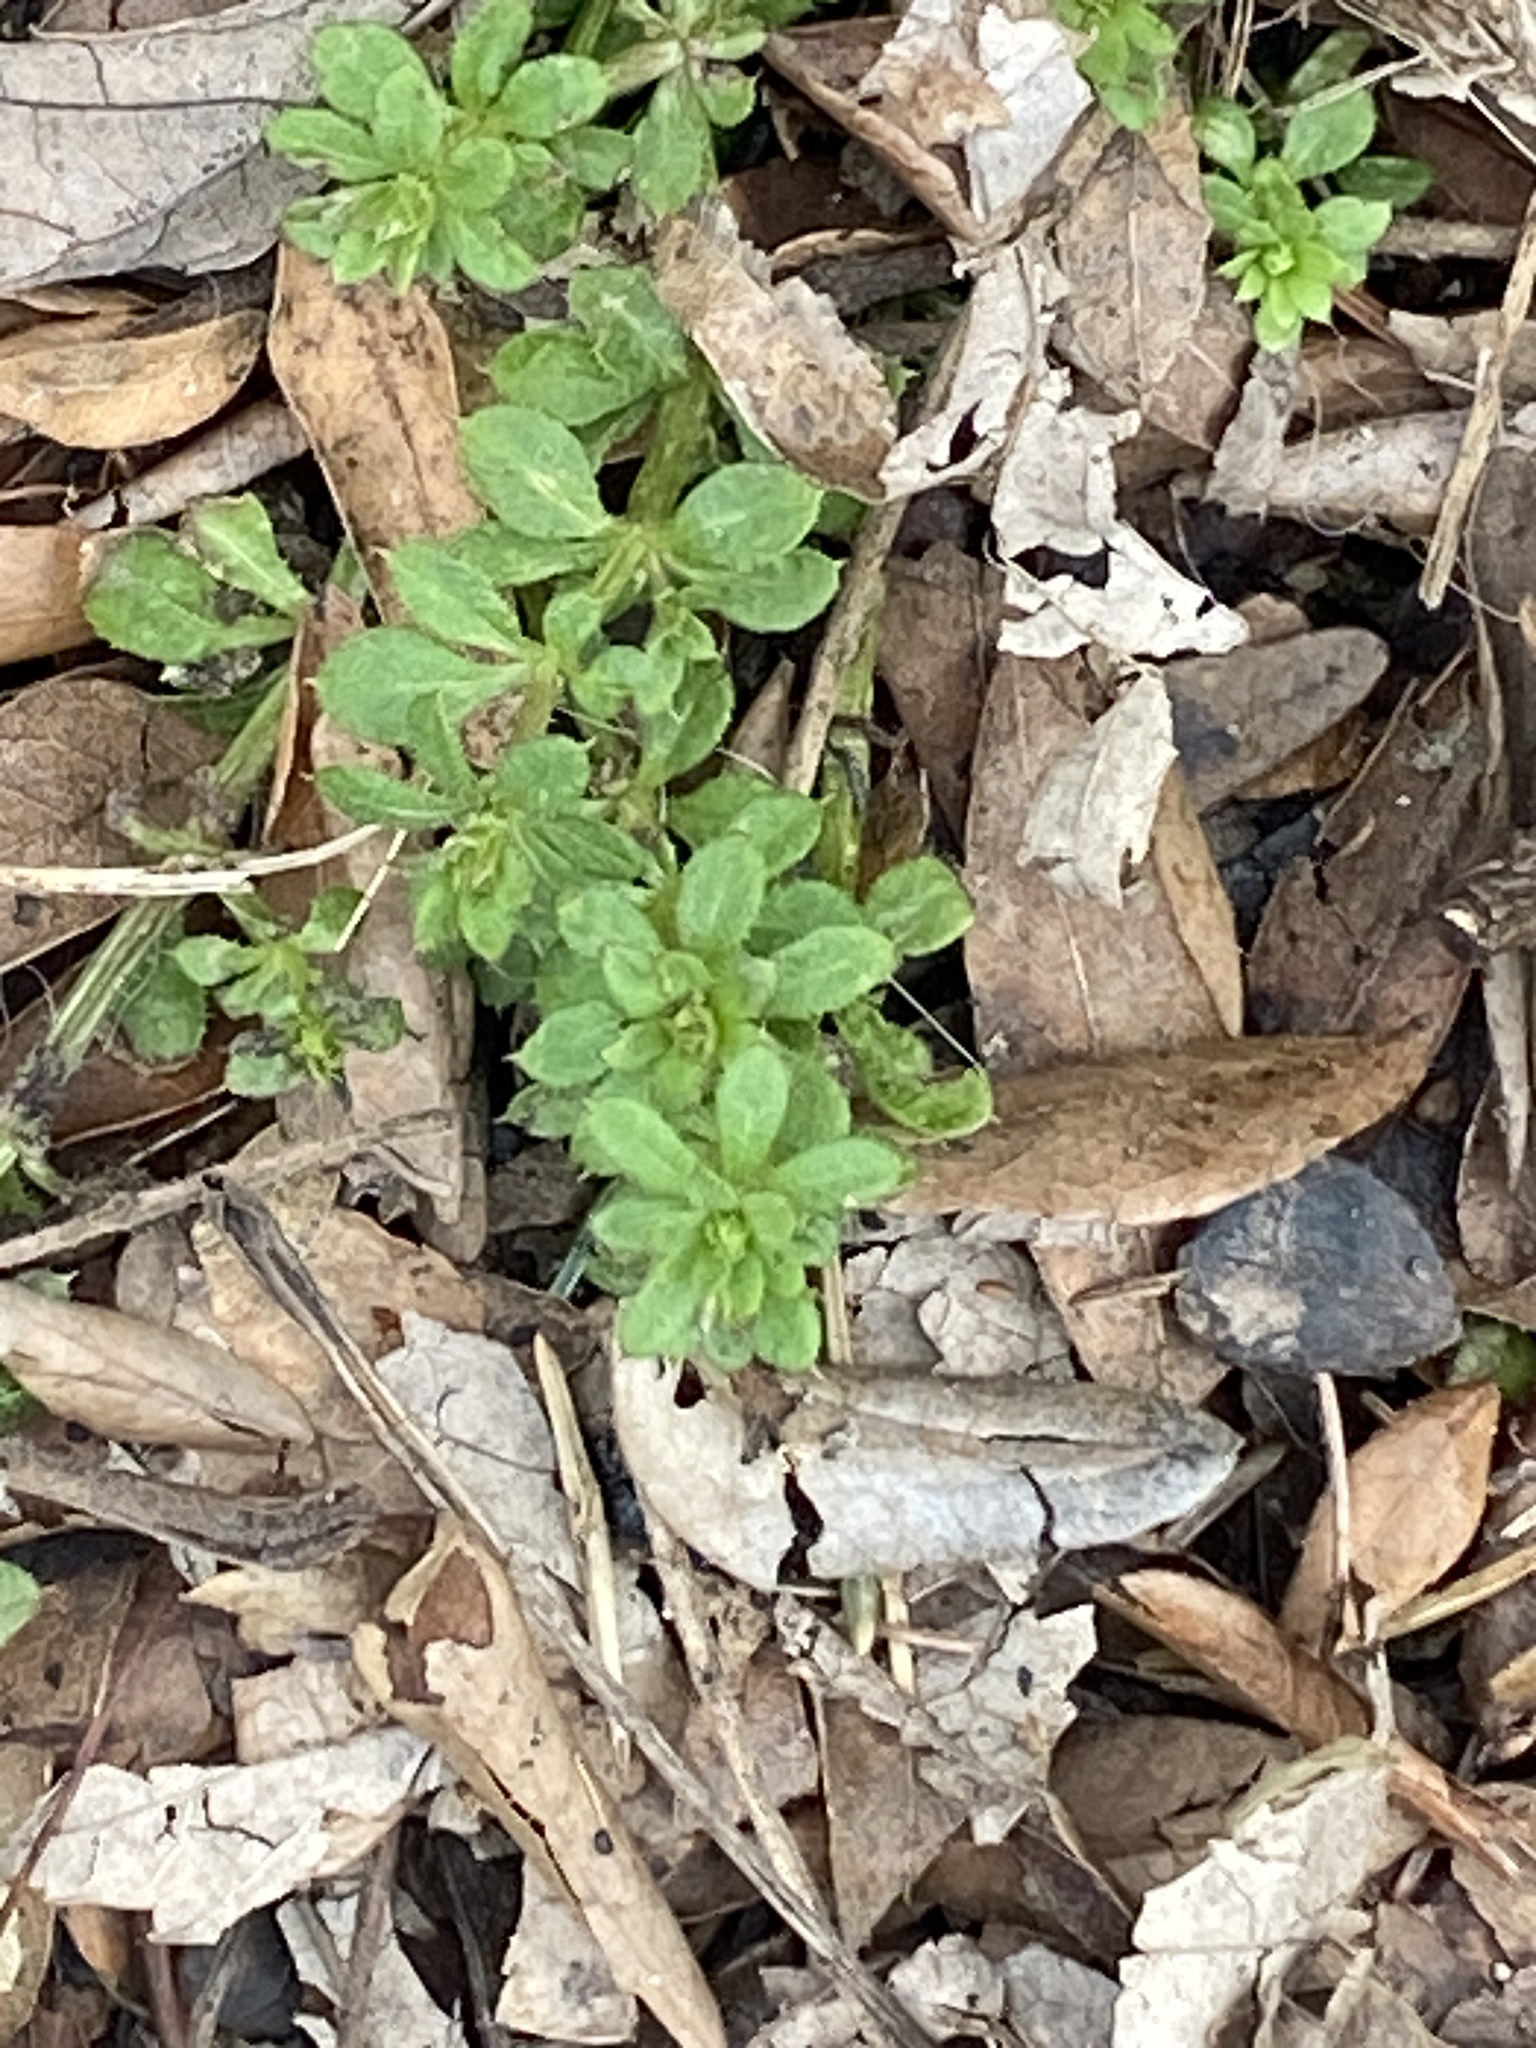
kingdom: Plantae
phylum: Tracheophyta
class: Magnoliopsida
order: Gentianales
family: Rubiaceae
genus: Galium
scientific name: Galium aparine
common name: Cleavers
